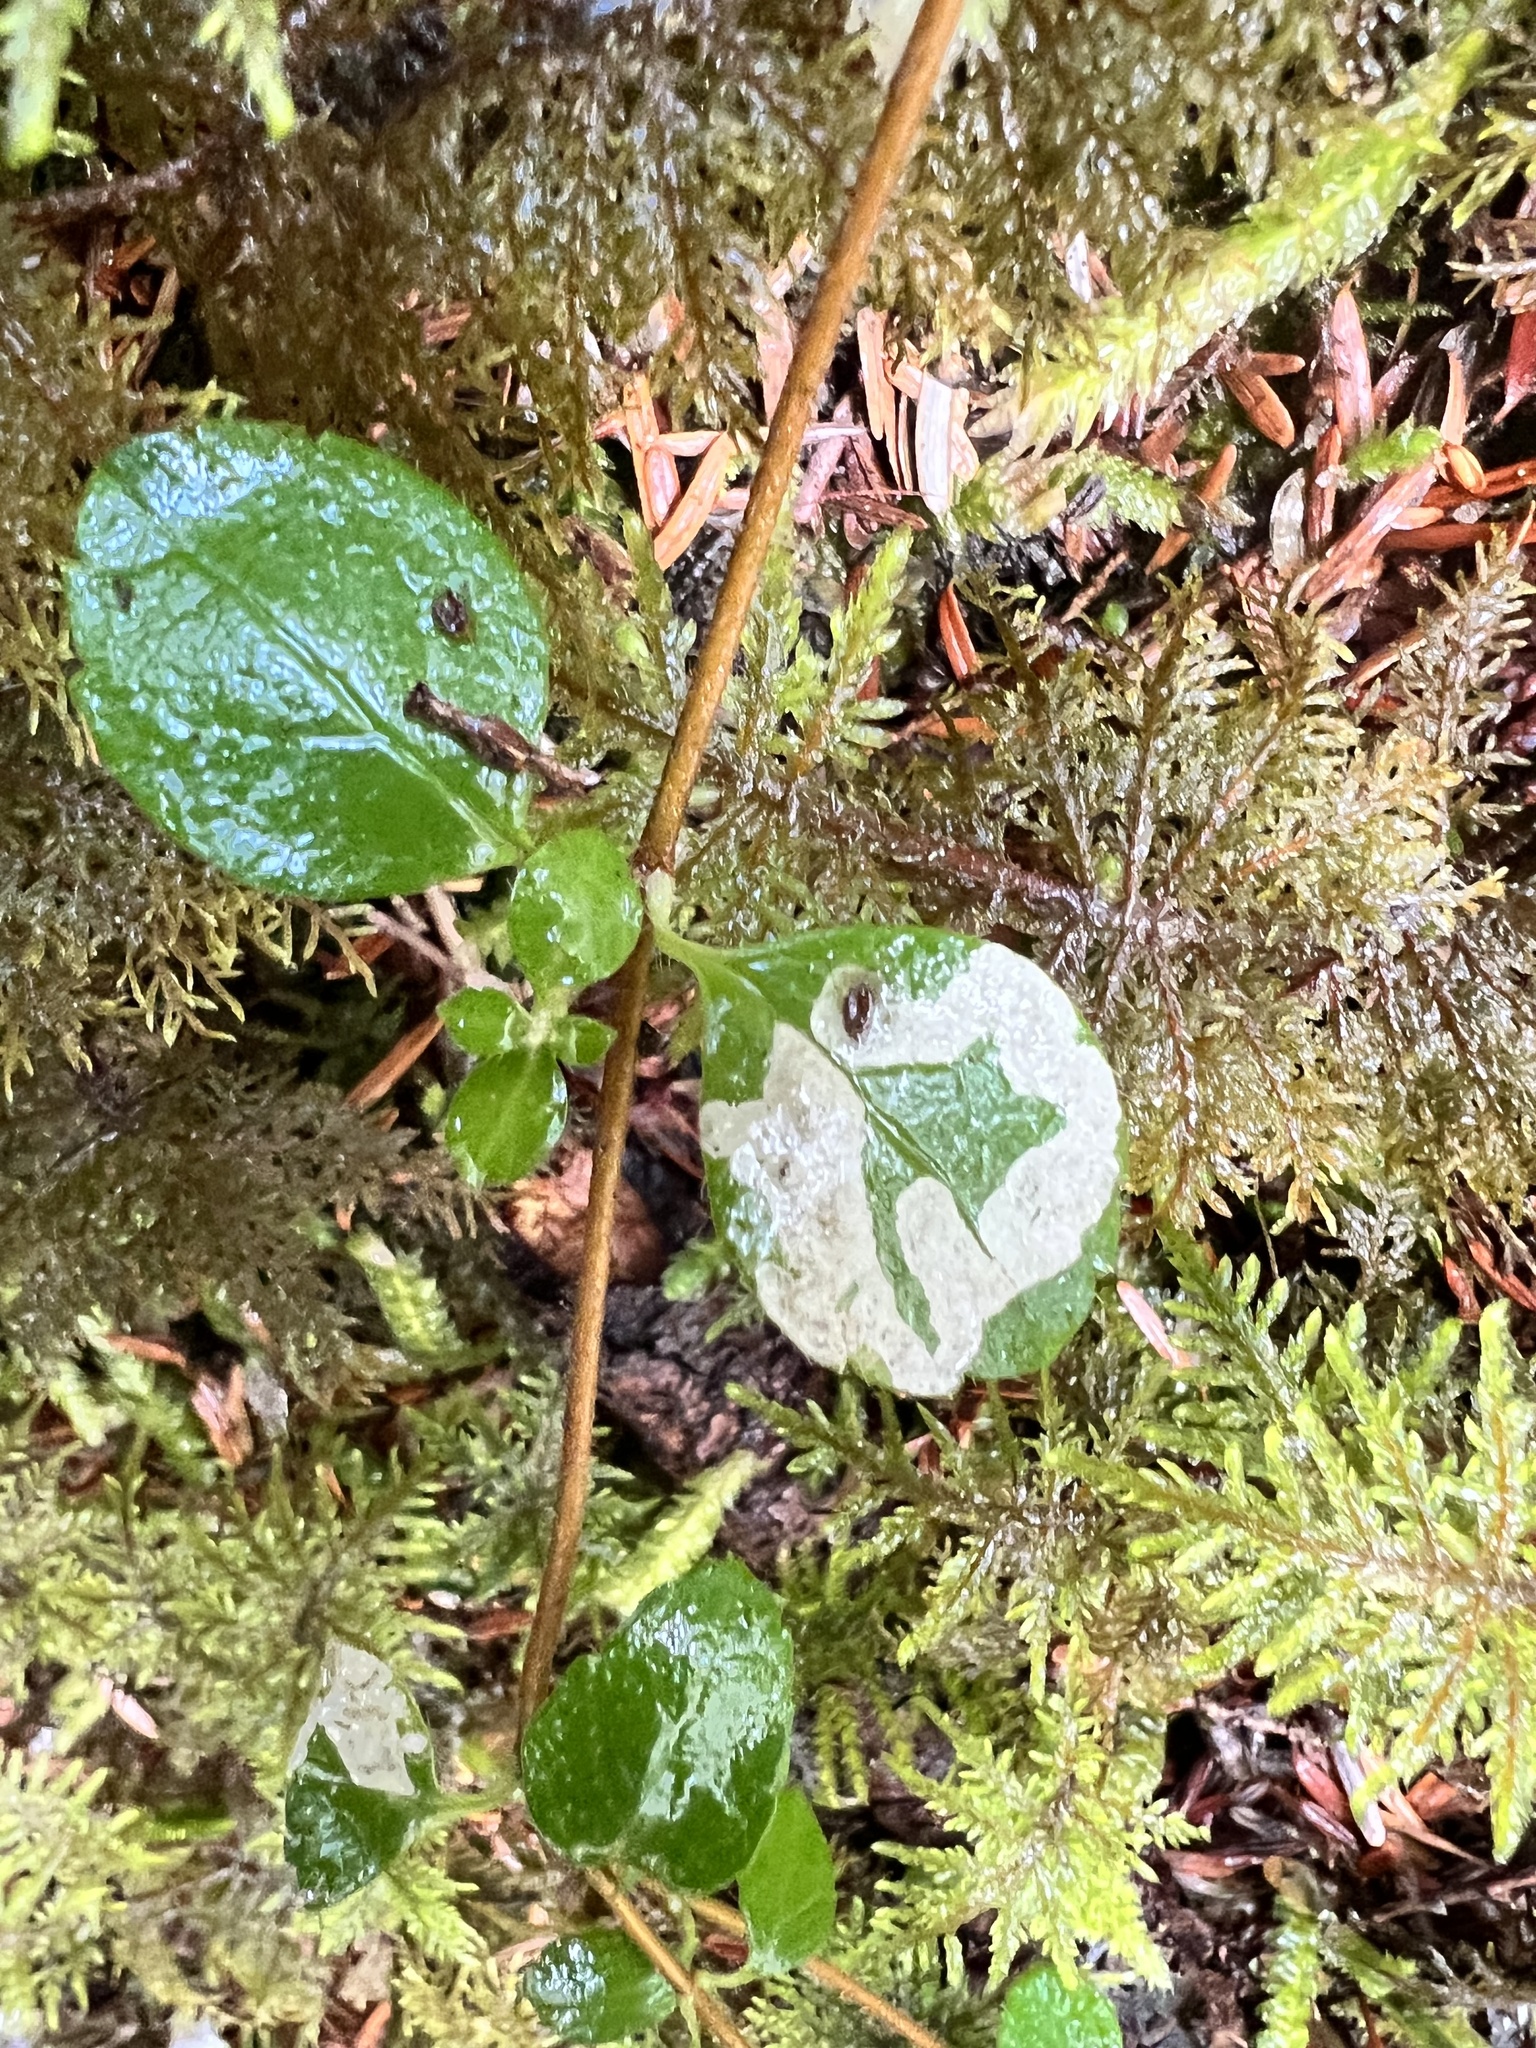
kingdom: Plantae
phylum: Tracheophyta
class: Magnoliopsida
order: Dipsacales
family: Caprifoliaceae
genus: Linnaea
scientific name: Linnaea borealis
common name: Twinflower
